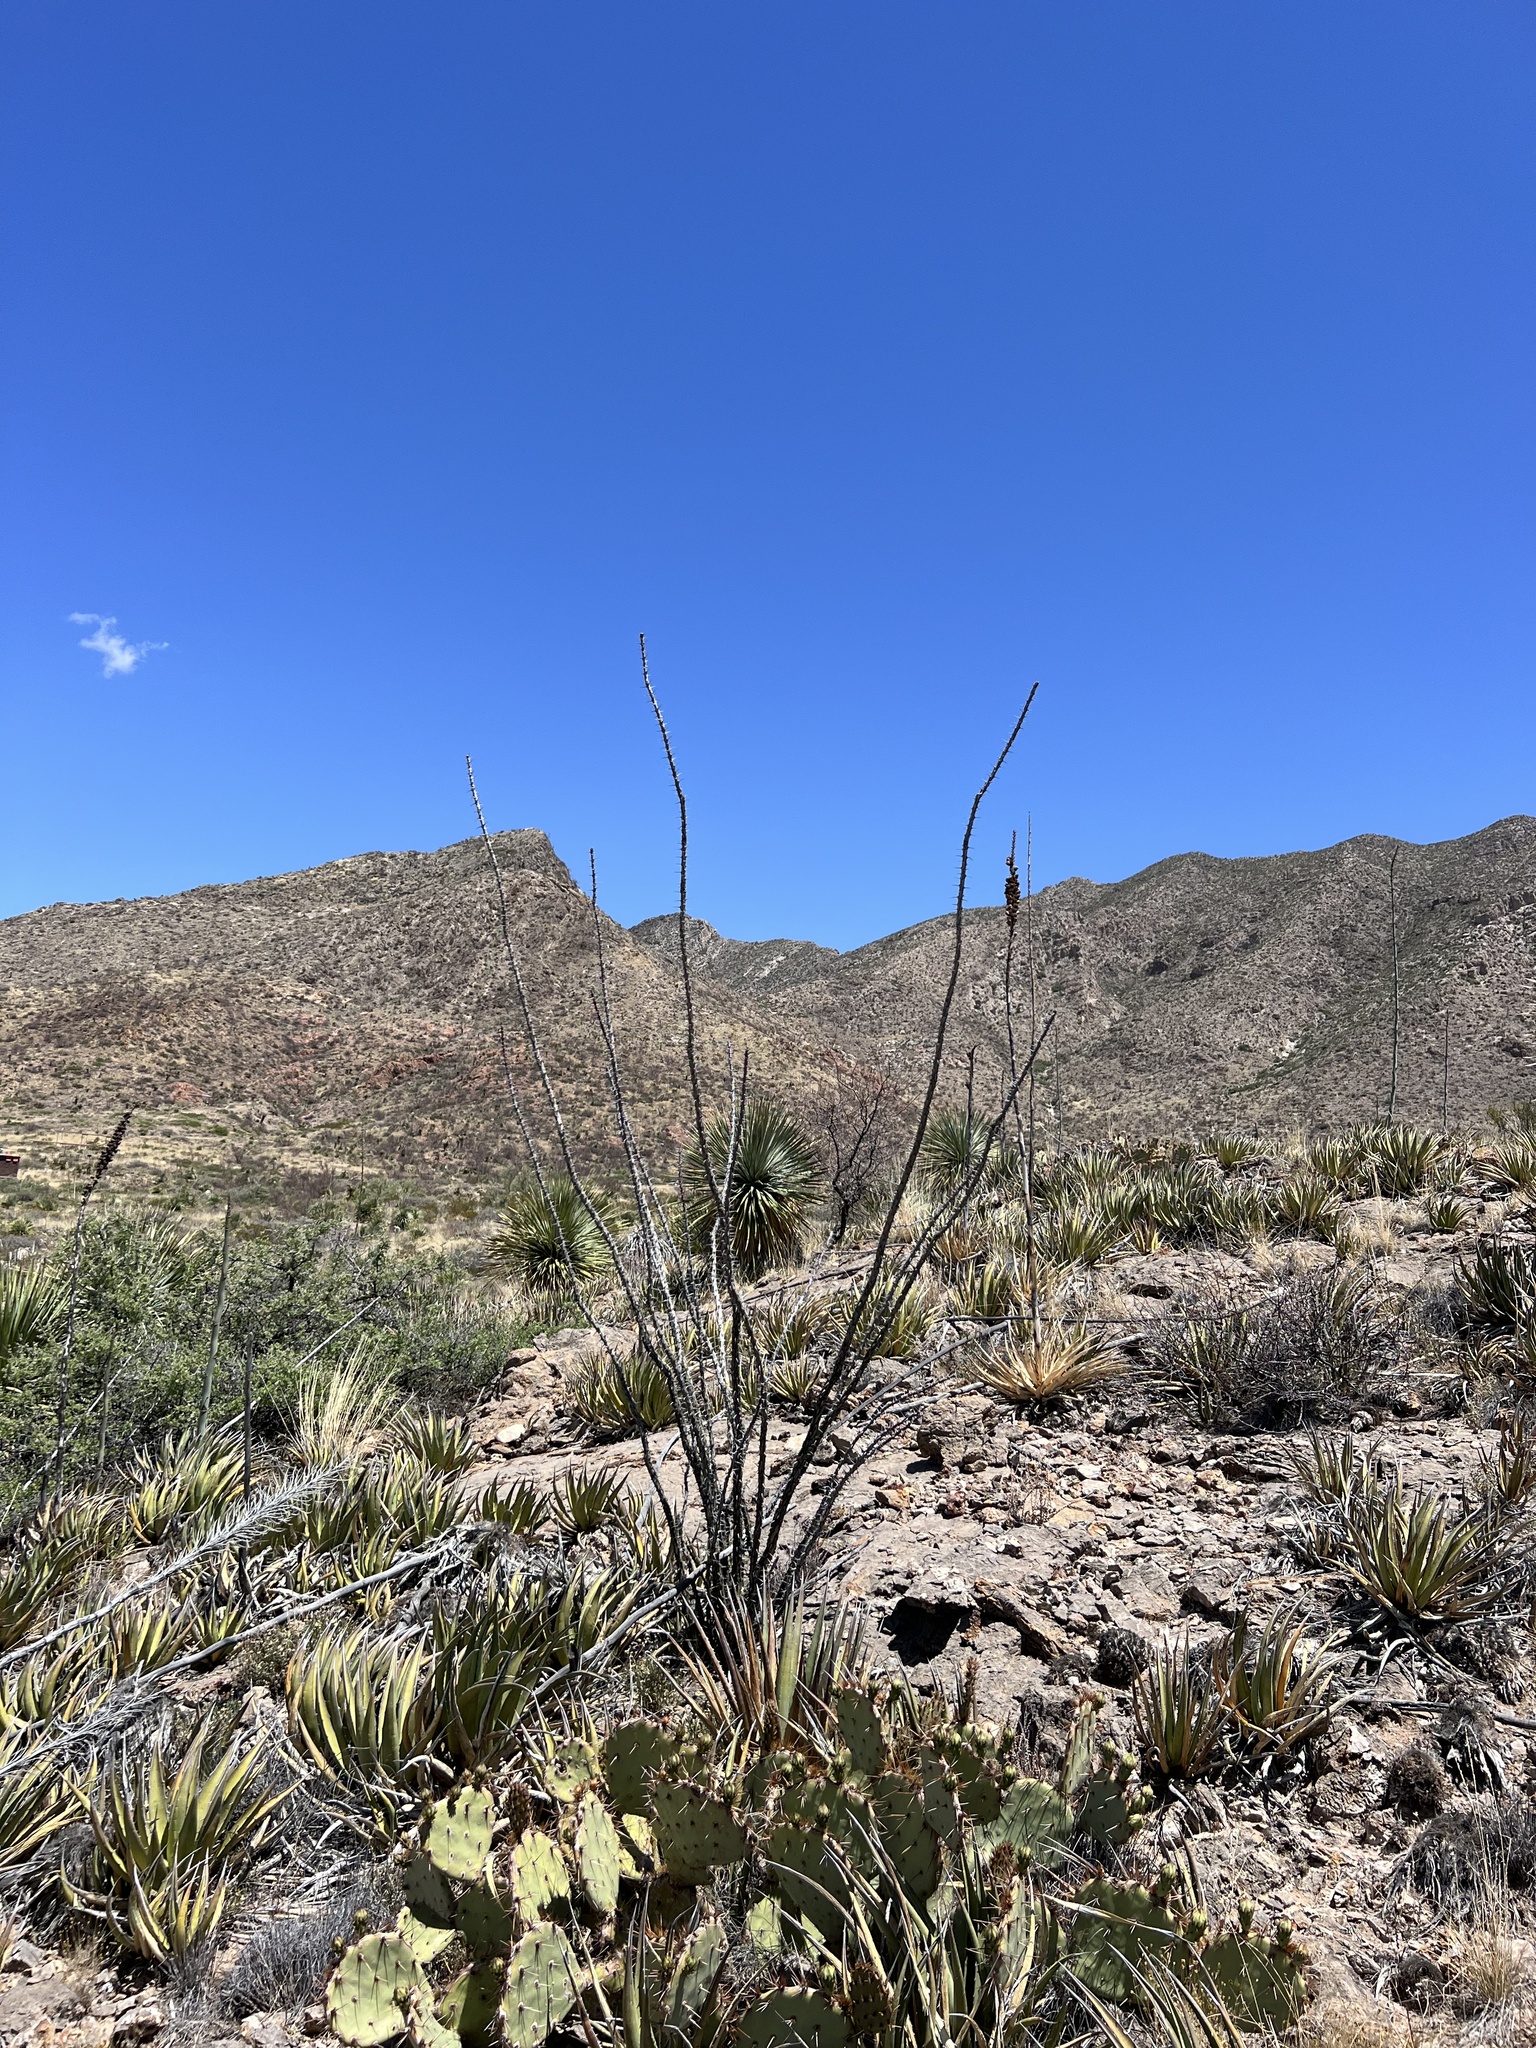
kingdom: Plantae
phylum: Tracheophyta
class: Magnoliopsida
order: Ericales
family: Fouquieriaceae
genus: Fouquieria
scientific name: Fouquieria splendens
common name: Vine-cactus
